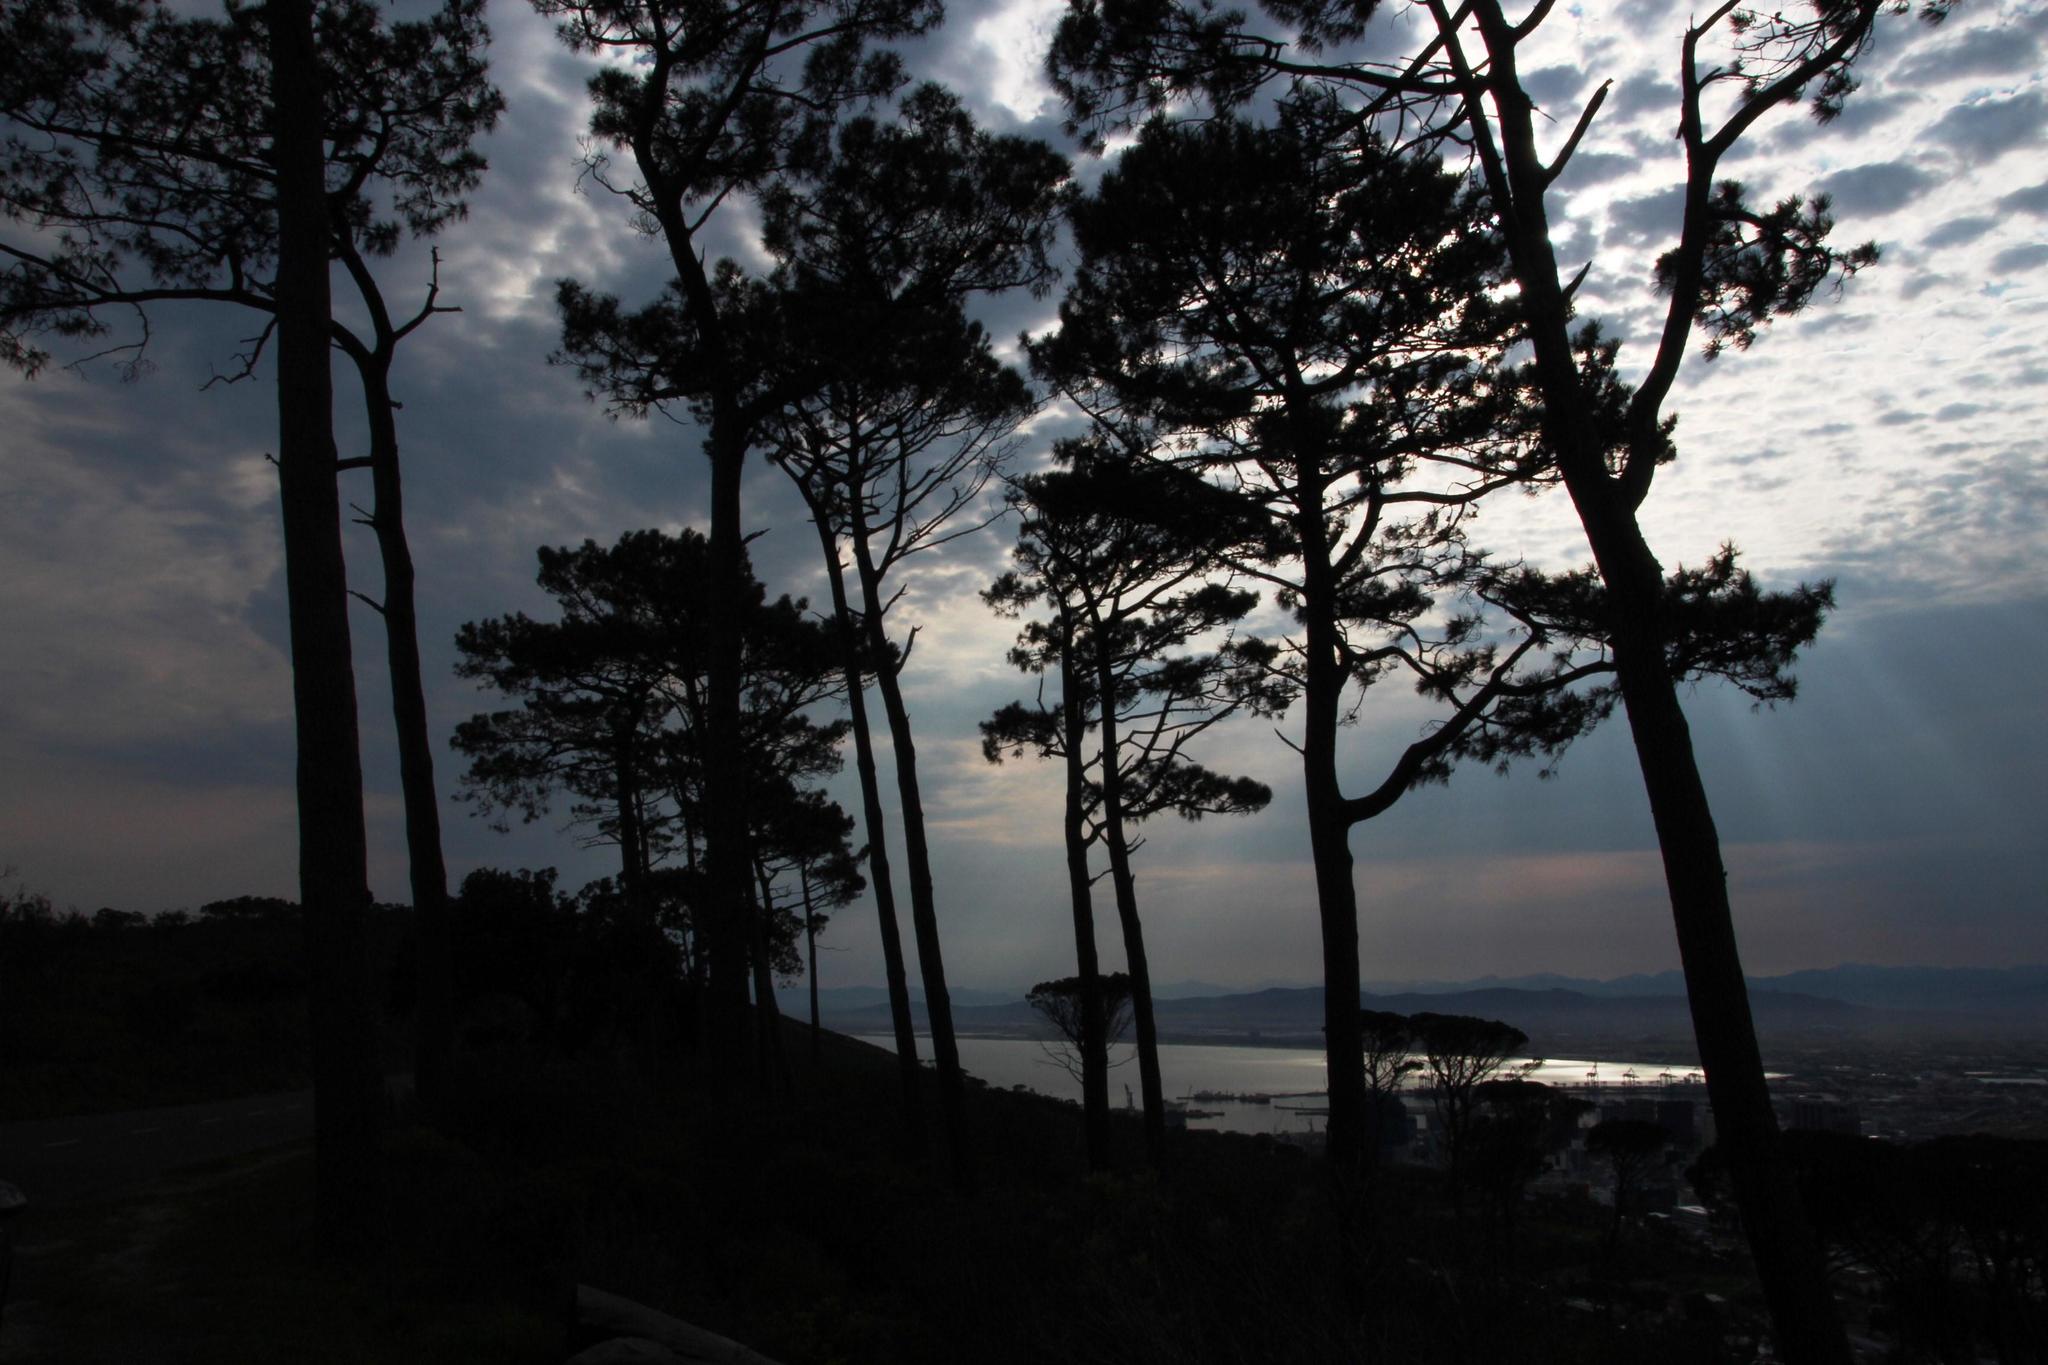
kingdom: Plantae
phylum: Tracheophyta
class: Pinopsida
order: Pinales
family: Pinaceae
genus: Pinus
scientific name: Pinus pinea
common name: Italian stone pine
